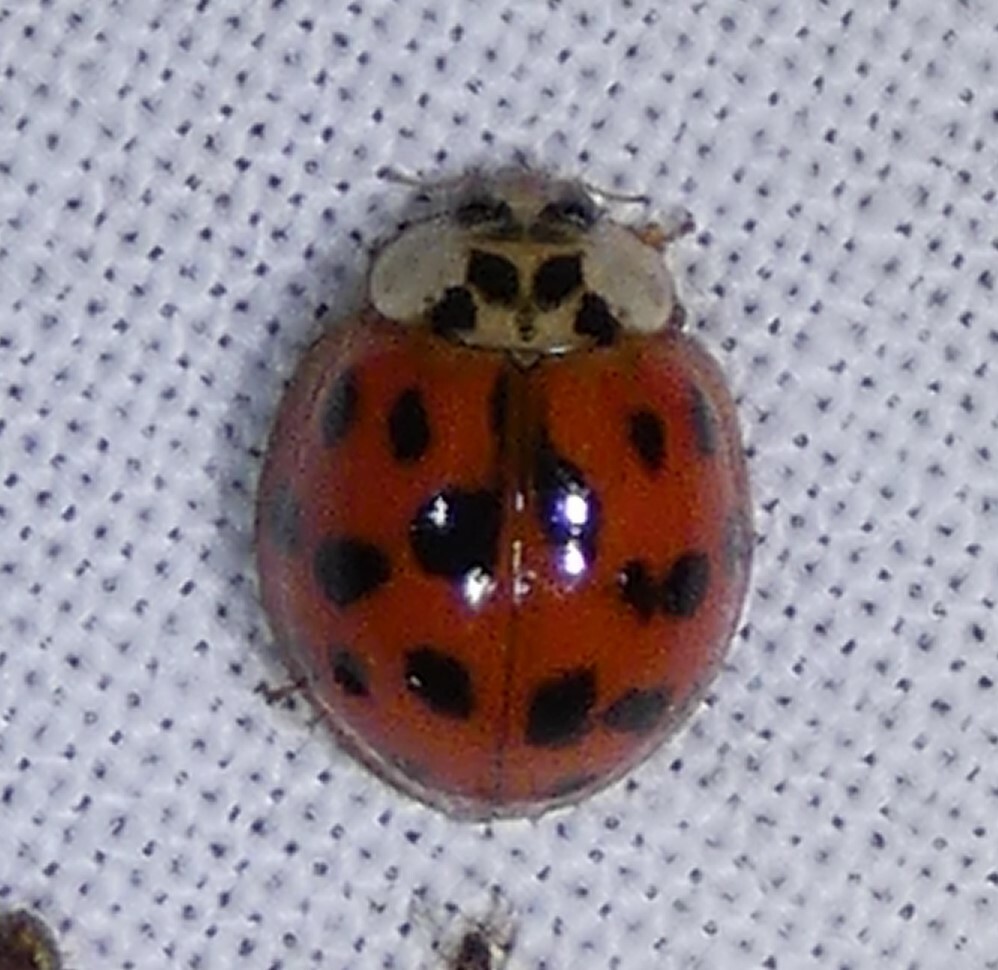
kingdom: Animalia
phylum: Arthropoda
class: Insecta
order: Coleoptera
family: Coccinellidae
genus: Harmonia
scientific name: Harmonia axyridis
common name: Harlequin ladybird
